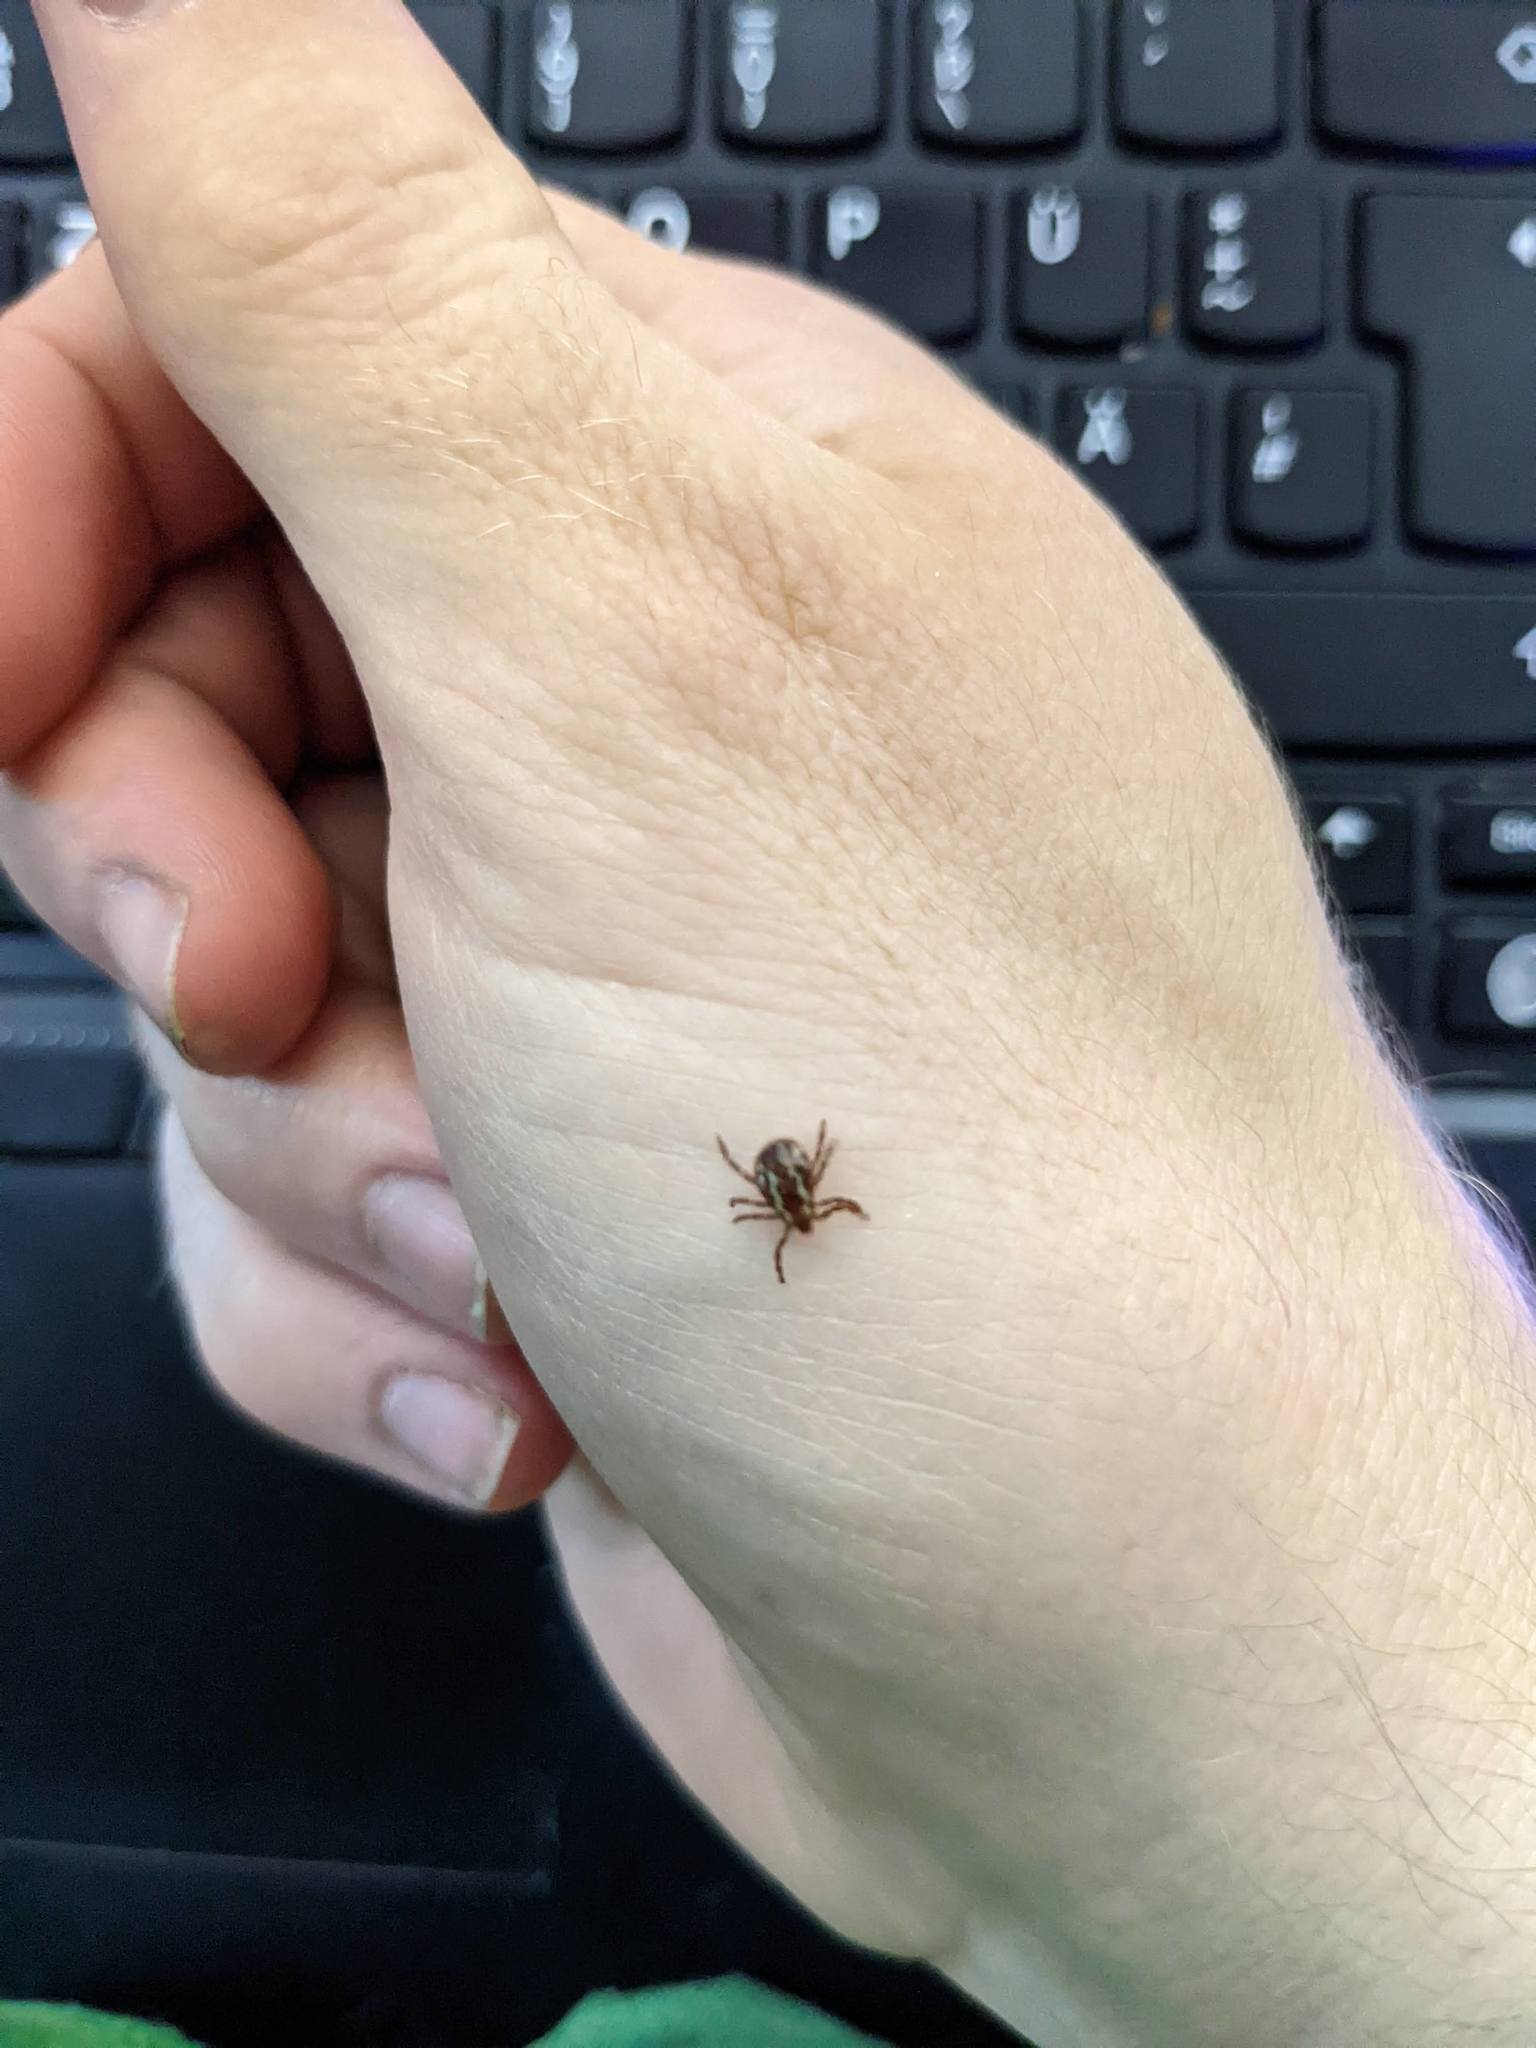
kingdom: Animalia
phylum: Arthropoda
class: Arachnida
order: Ixodida
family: Ixodidae
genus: Dermacentor
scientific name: Dermacentor variabilis
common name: American dog tick
